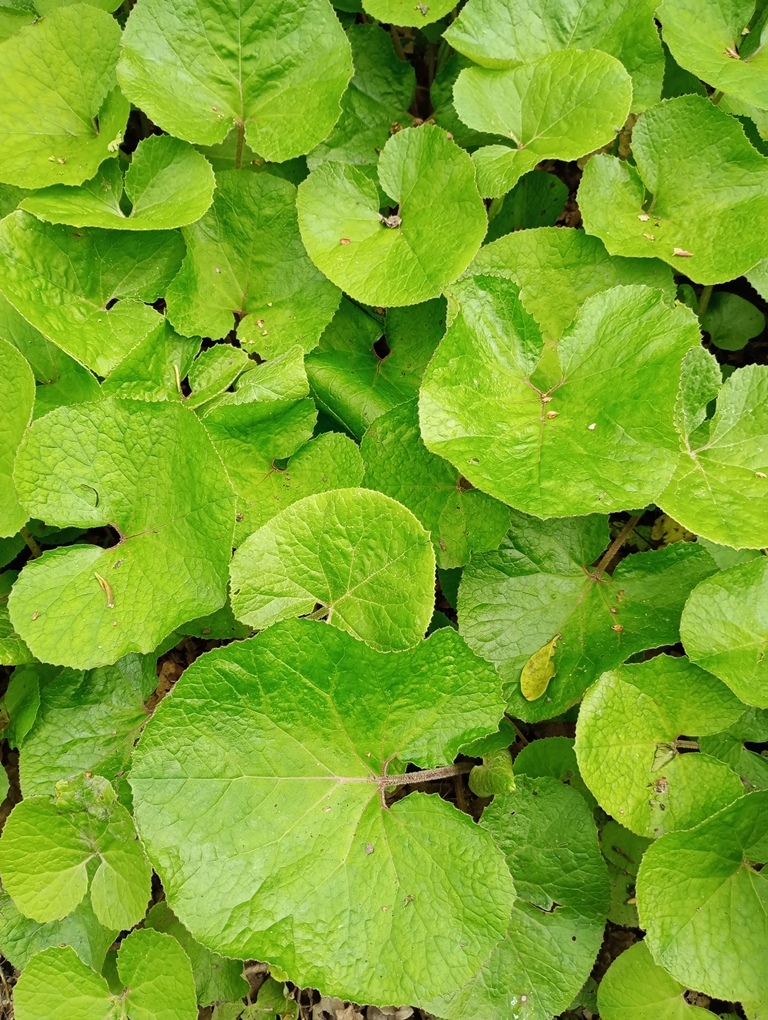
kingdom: Plantae
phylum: Tracheophyta
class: Magnoliopsida
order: Asterales
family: Asteraceae
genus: Petasites
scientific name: Petasites pyrenaicus
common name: Winter heliotrope
